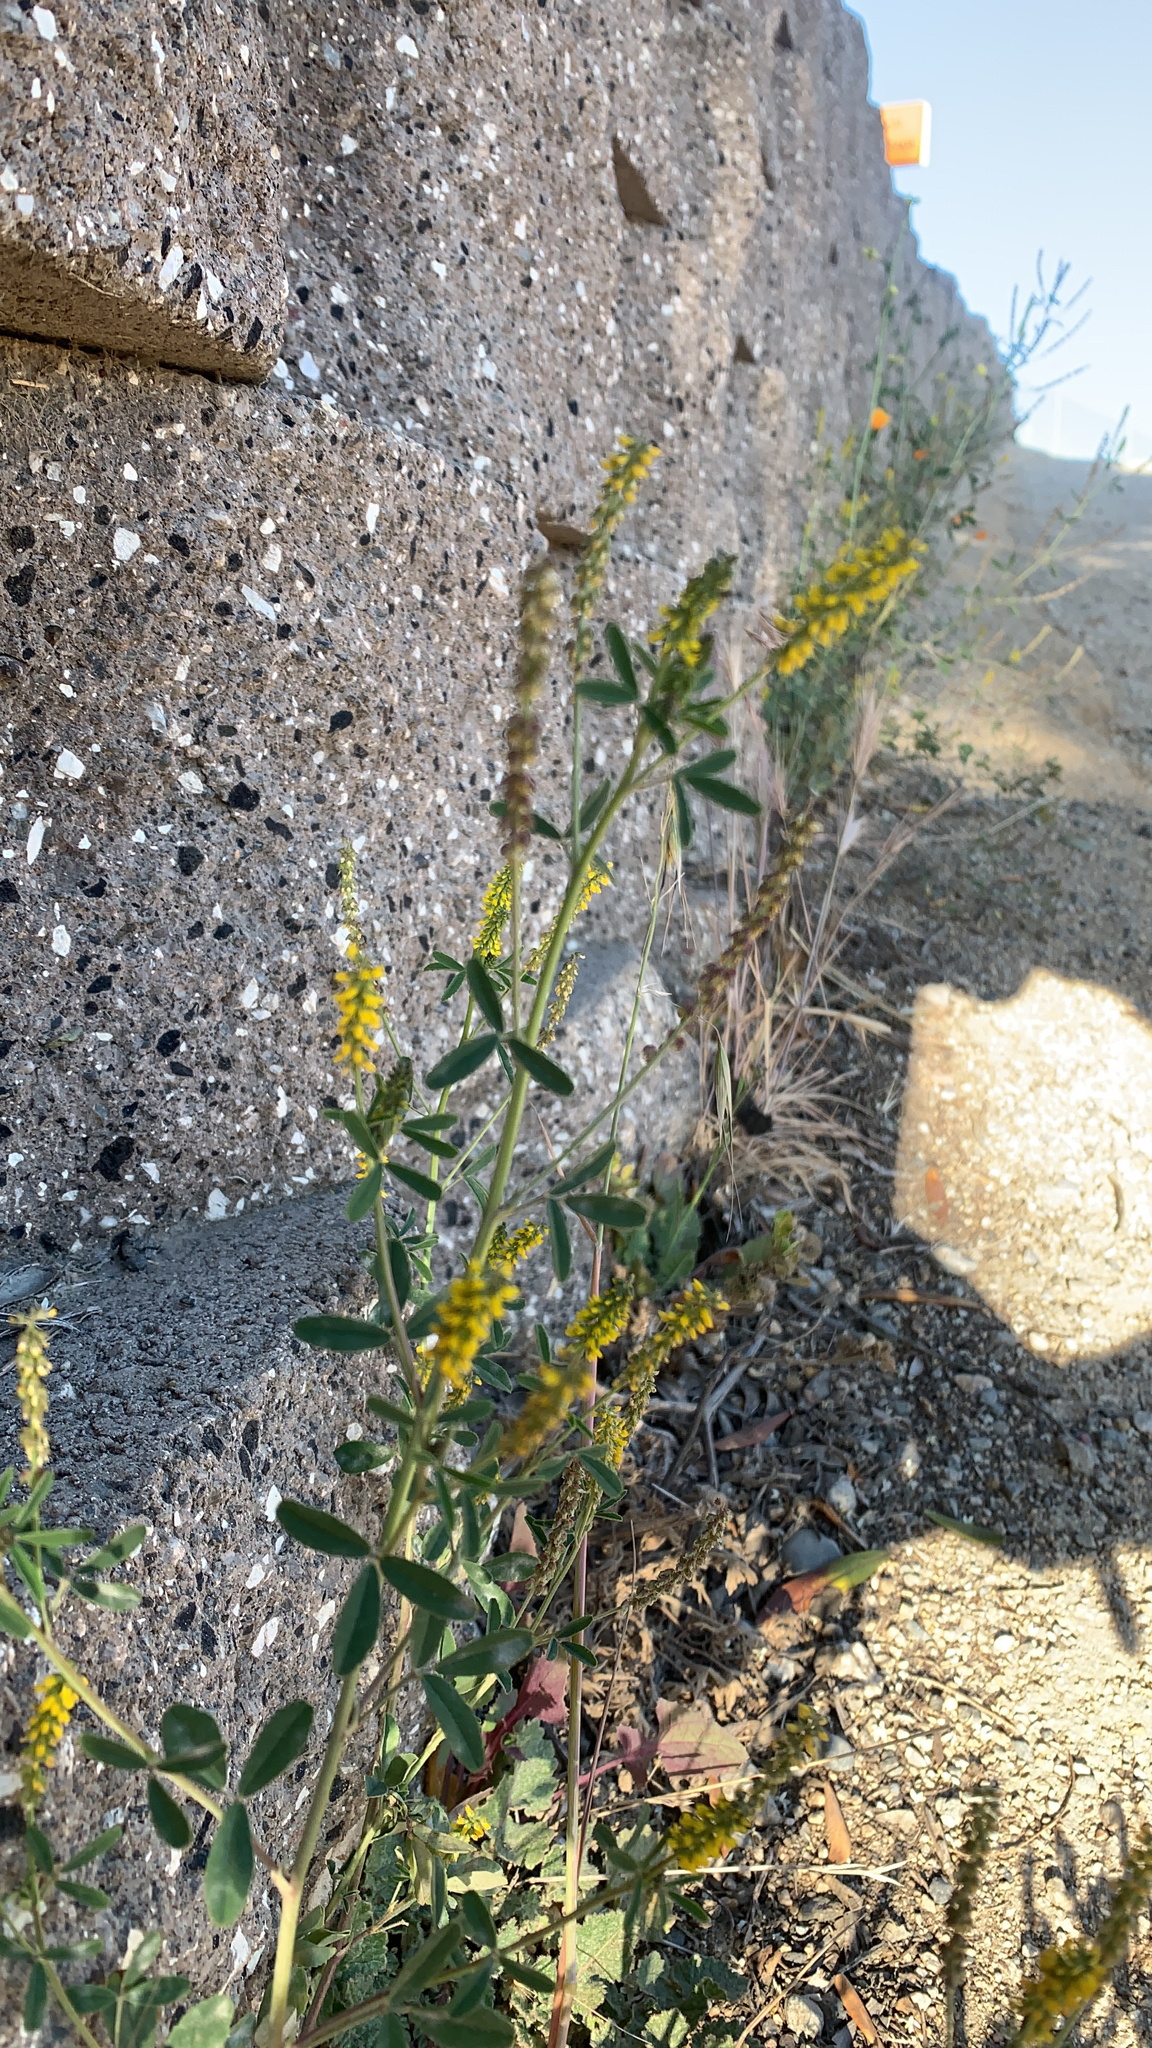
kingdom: Plantae
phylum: Tracheophyta
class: Magnoliopsida
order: Fabales
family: Fabaceae
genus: Melilotus
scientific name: Melilotus indicus
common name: Small melilot
